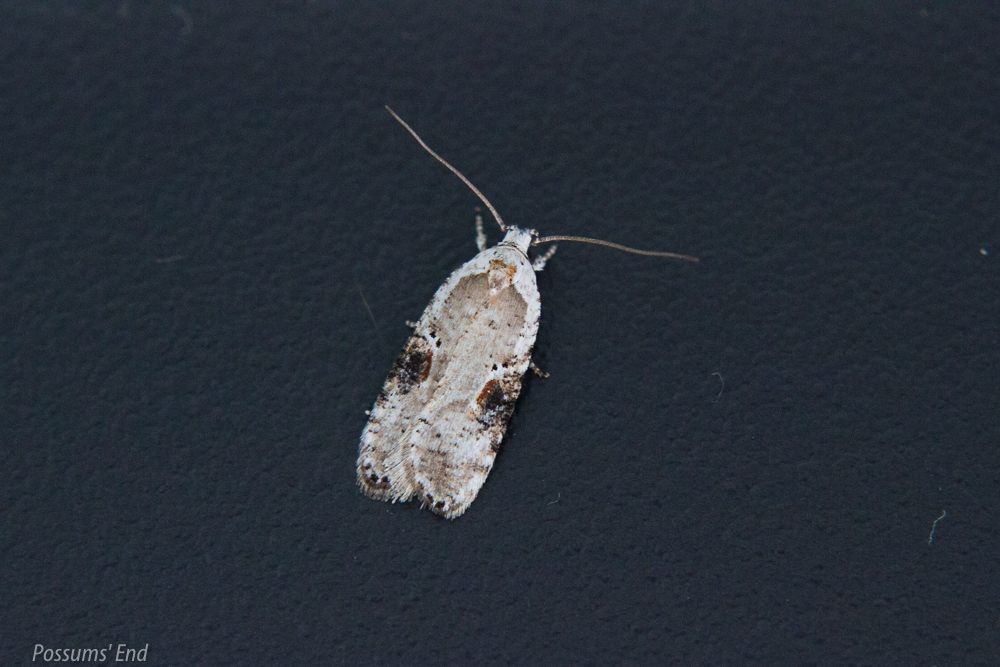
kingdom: Animalia
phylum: Arthropoda
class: Insecta
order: Lepidoptera
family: Depressariidae
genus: Agonopterix
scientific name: Agonopterix alstroemeriana
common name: Moth
